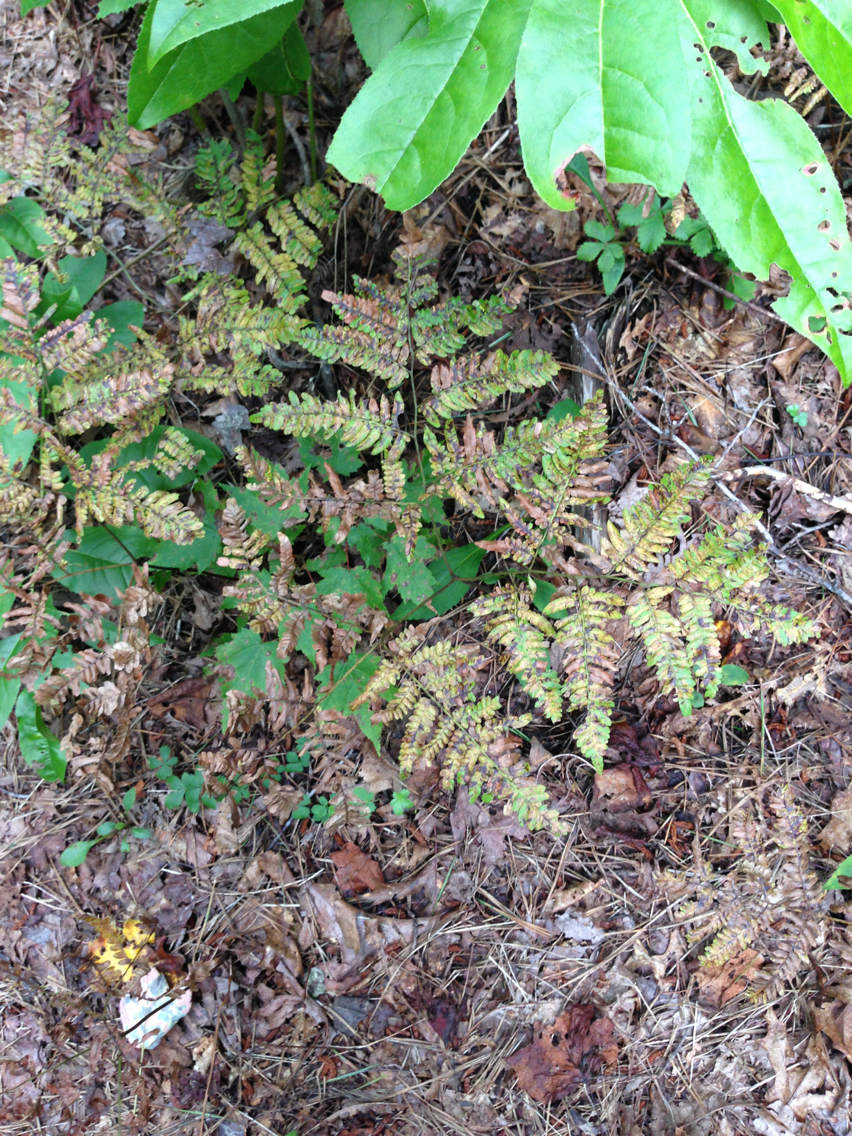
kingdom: Plantae
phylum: Tracheophyta
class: Polypodiopsida
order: Polypodiales
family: Dennstaedtiaceae
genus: Pteridium
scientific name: Pteridium aquilinum
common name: Bracken
